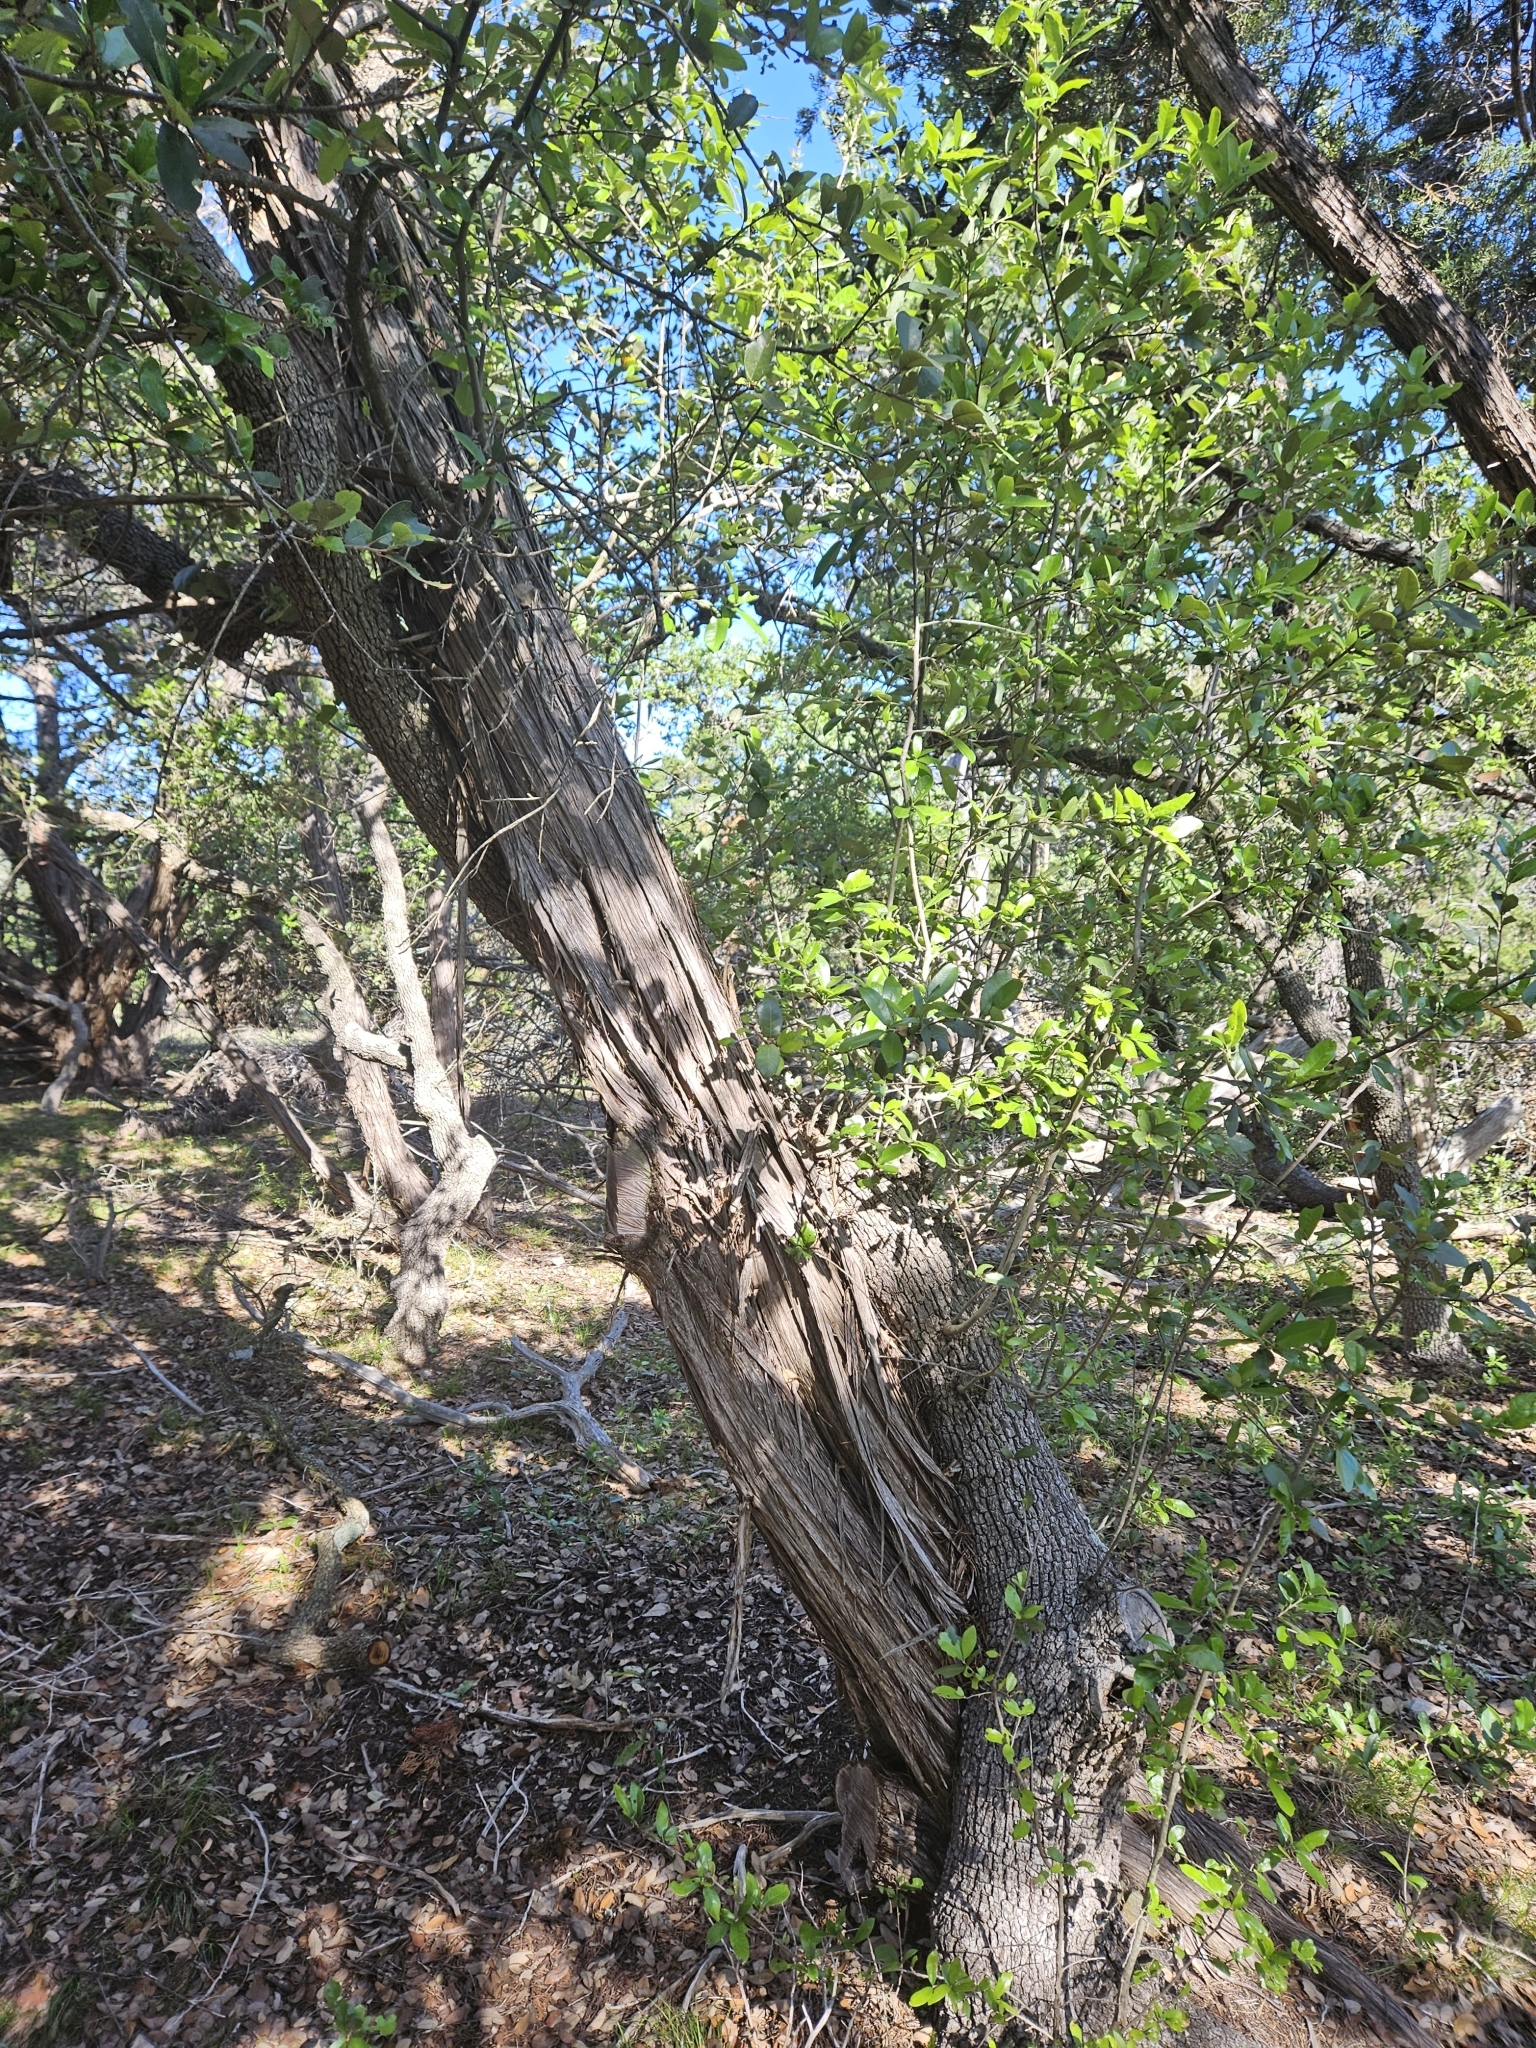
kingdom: Plantae
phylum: Tracheophyta
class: Magnoliopsida
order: Fagales
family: Fagaceae
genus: Quercus
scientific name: Quercus fusiformis
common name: Texas live oak
